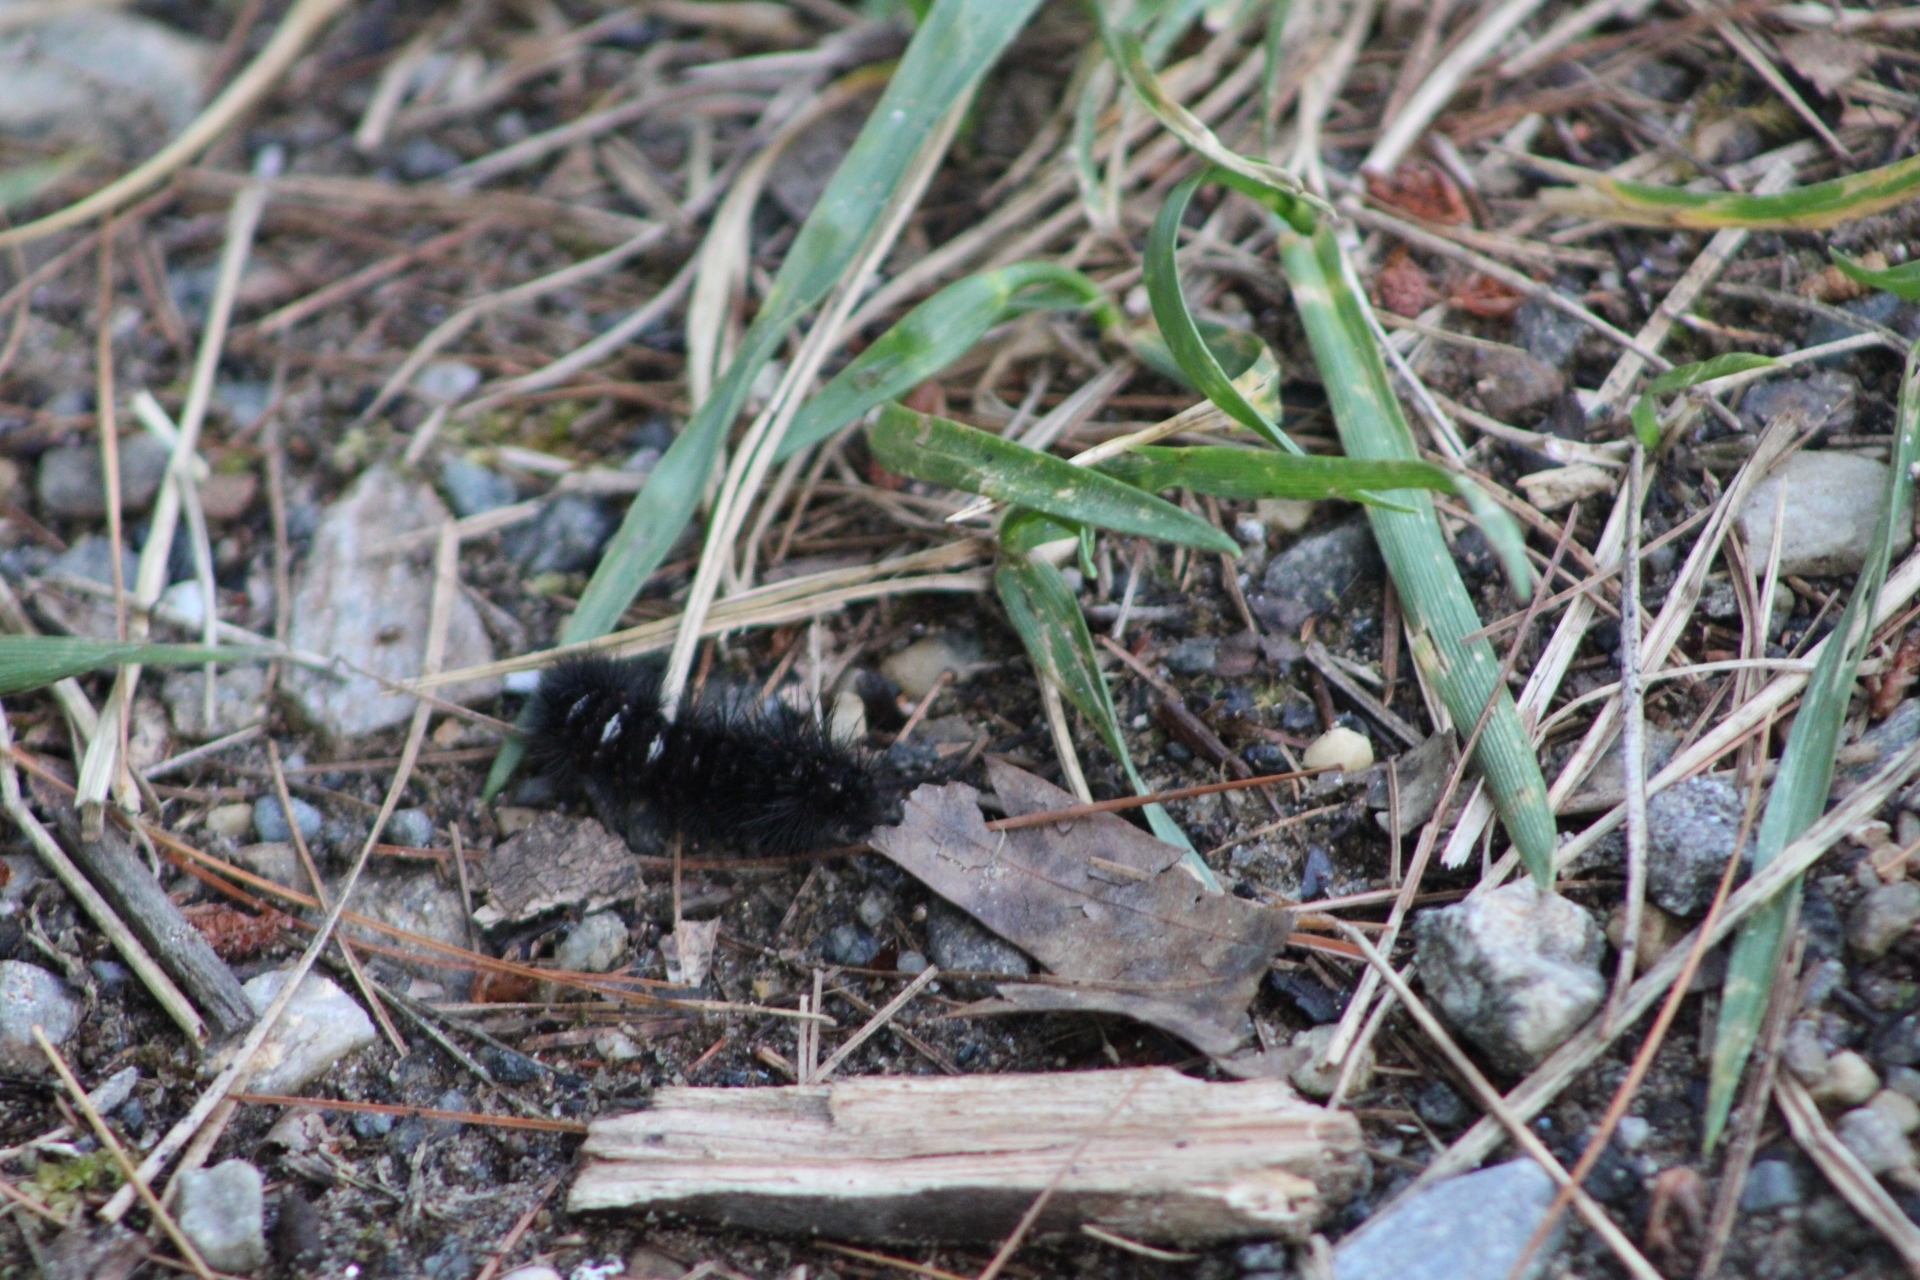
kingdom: Animalia
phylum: Arthropoda
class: Insecta
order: Lepidoptera
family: Erebidae
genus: Spilosoma
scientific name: Spilosoma congrua
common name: Agreeable tiger moth
